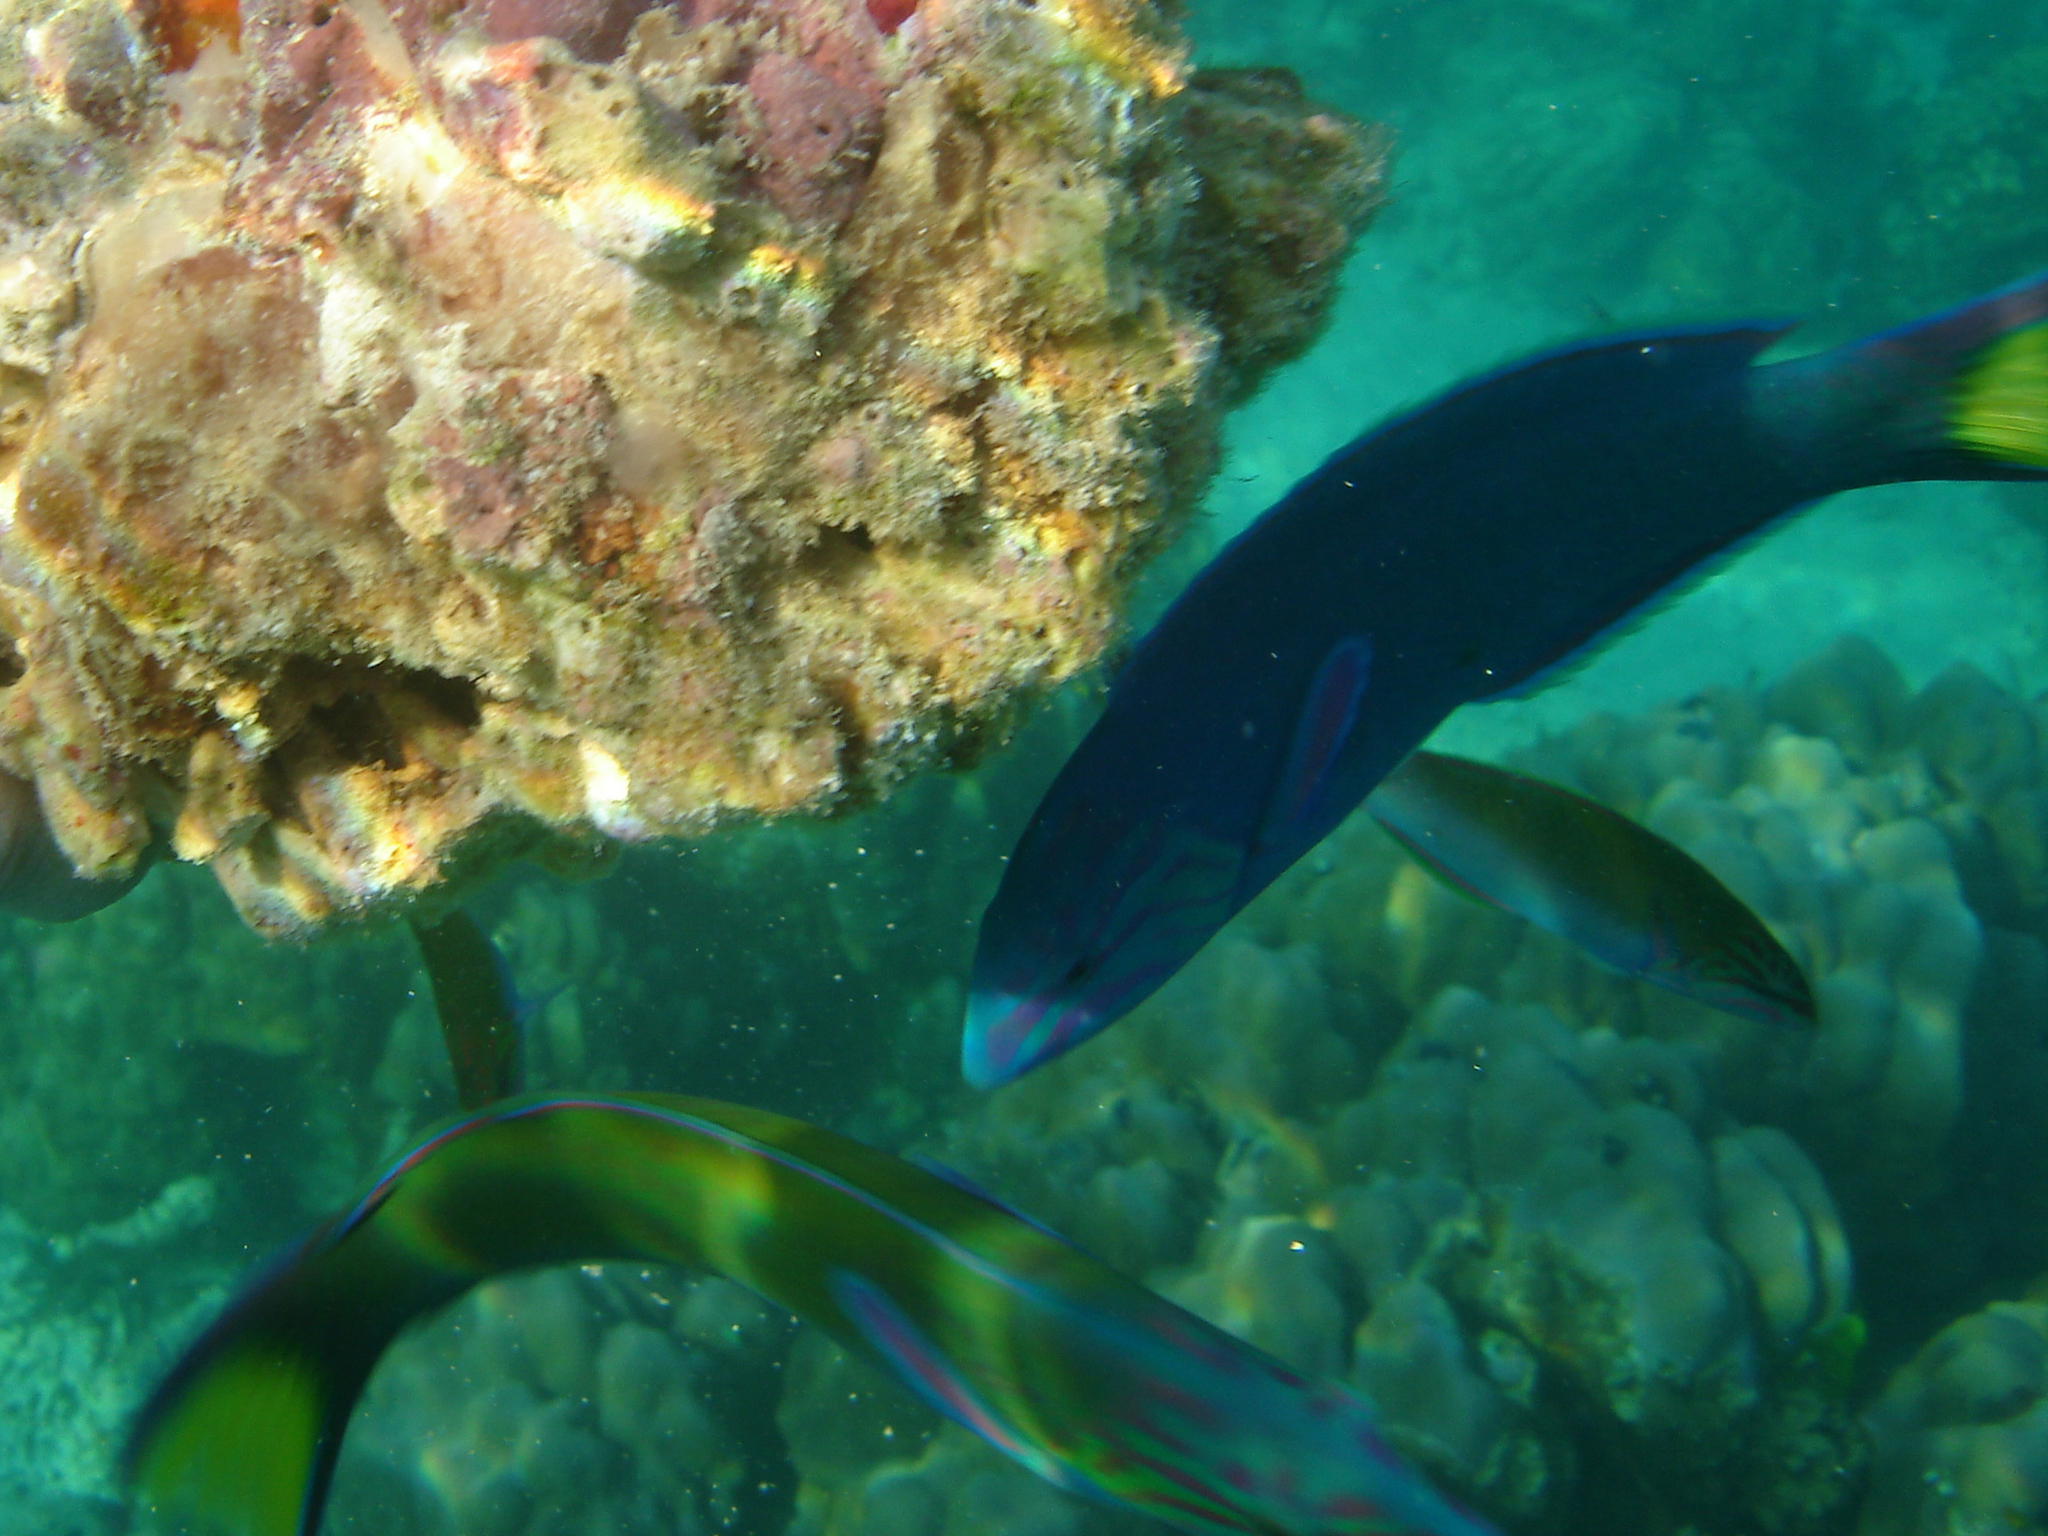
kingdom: Animalia
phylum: Chordata
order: Perciformes
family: Labridae
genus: Thalassoma
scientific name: Thalassoma lunare
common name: Blue wrasse
